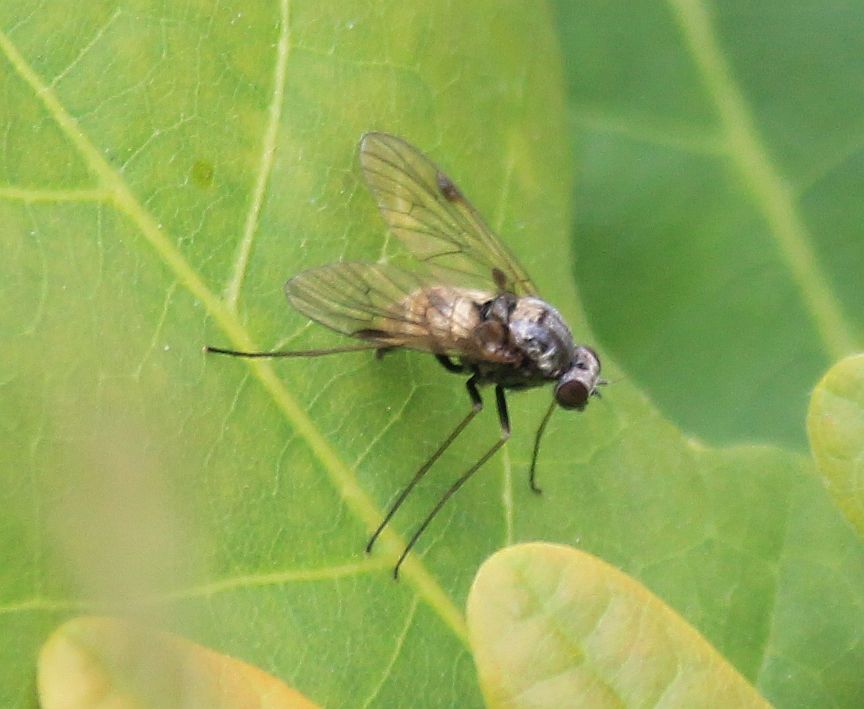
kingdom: Animalia
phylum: Arthropoda
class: Insecta
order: Diptera
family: Rhagionidae
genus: Chrysopilus
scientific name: Chrysopilus cristatus
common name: Black snipefly
